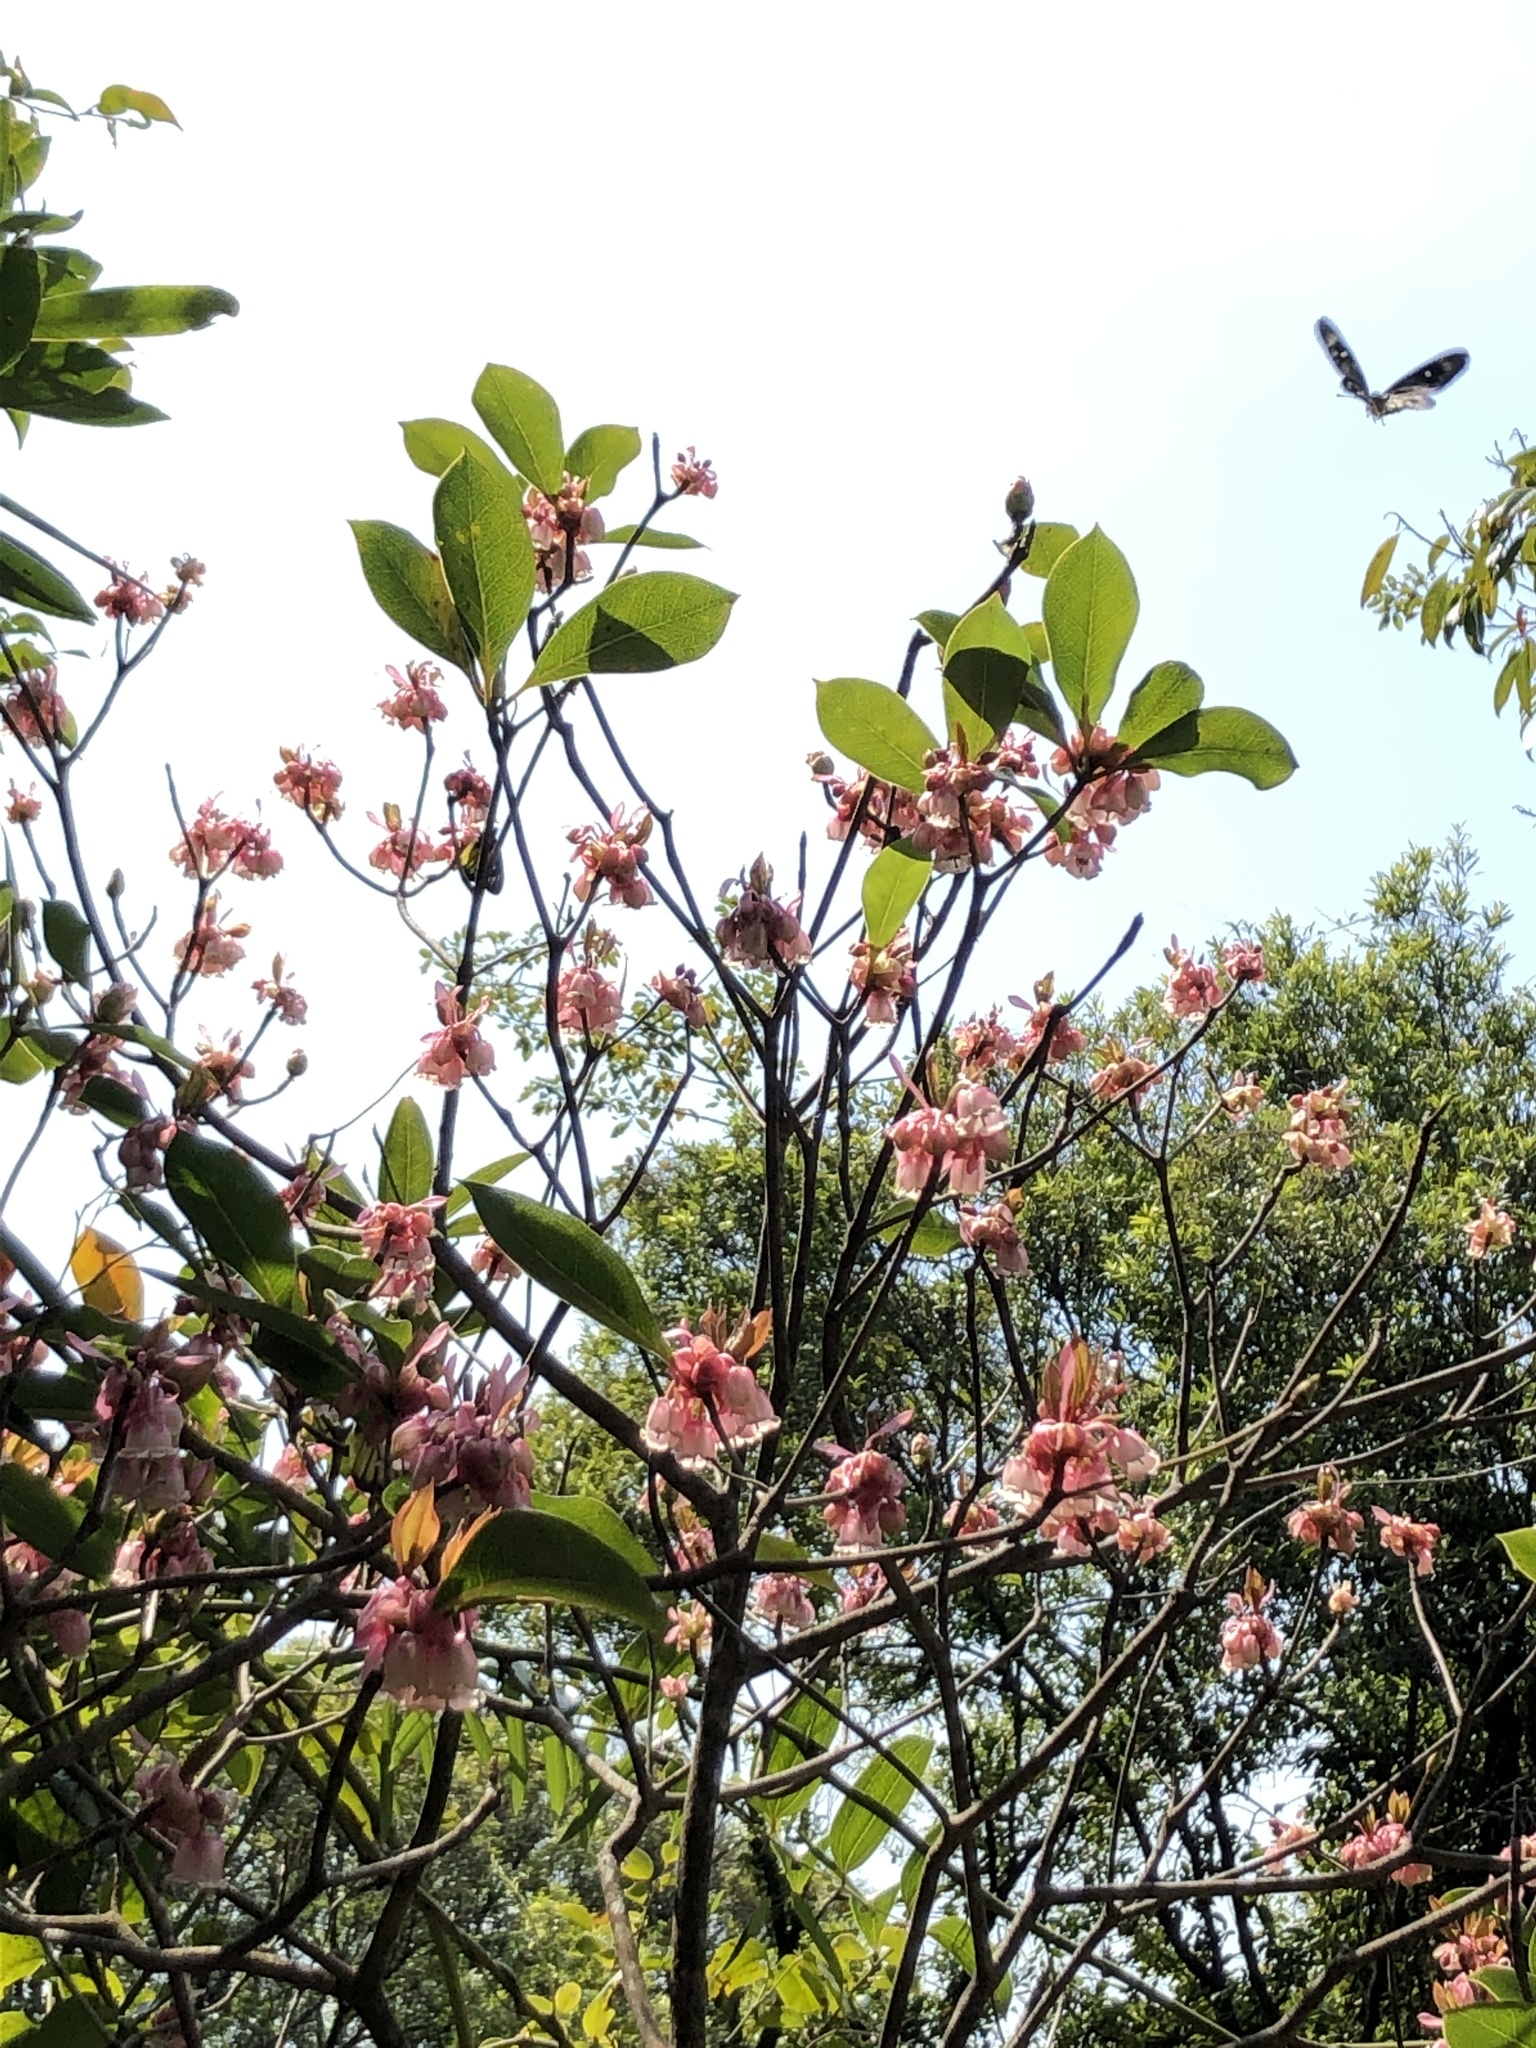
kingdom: Animalia
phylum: Arthropoda
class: Insecta
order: Lepidoptera
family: Pieridae
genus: Delias
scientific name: Delias pasithoe
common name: Red-base jezebel
